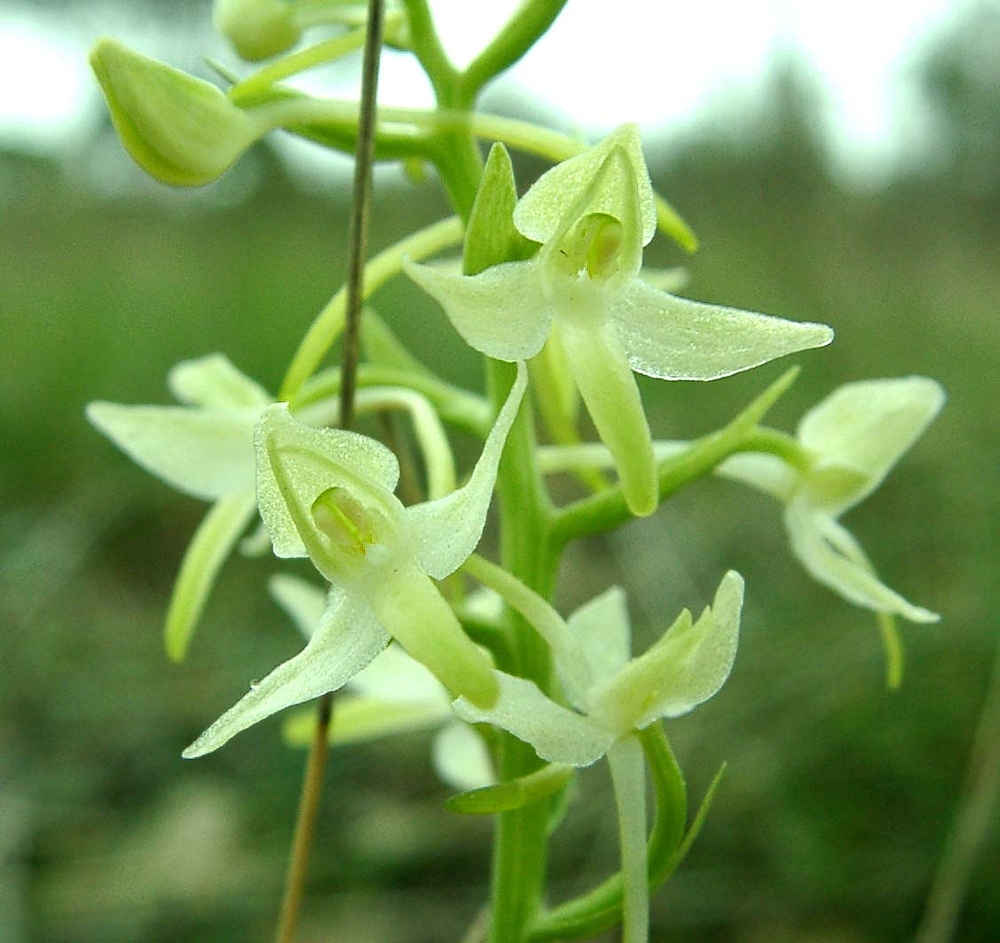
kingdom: Plantae
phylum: Tracheophyta
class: Liliopsida
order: Asparagales
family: Orchidaceae
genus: Platanthera
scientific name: Platanthera bifolia
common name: Lesser butterfly-orchid
